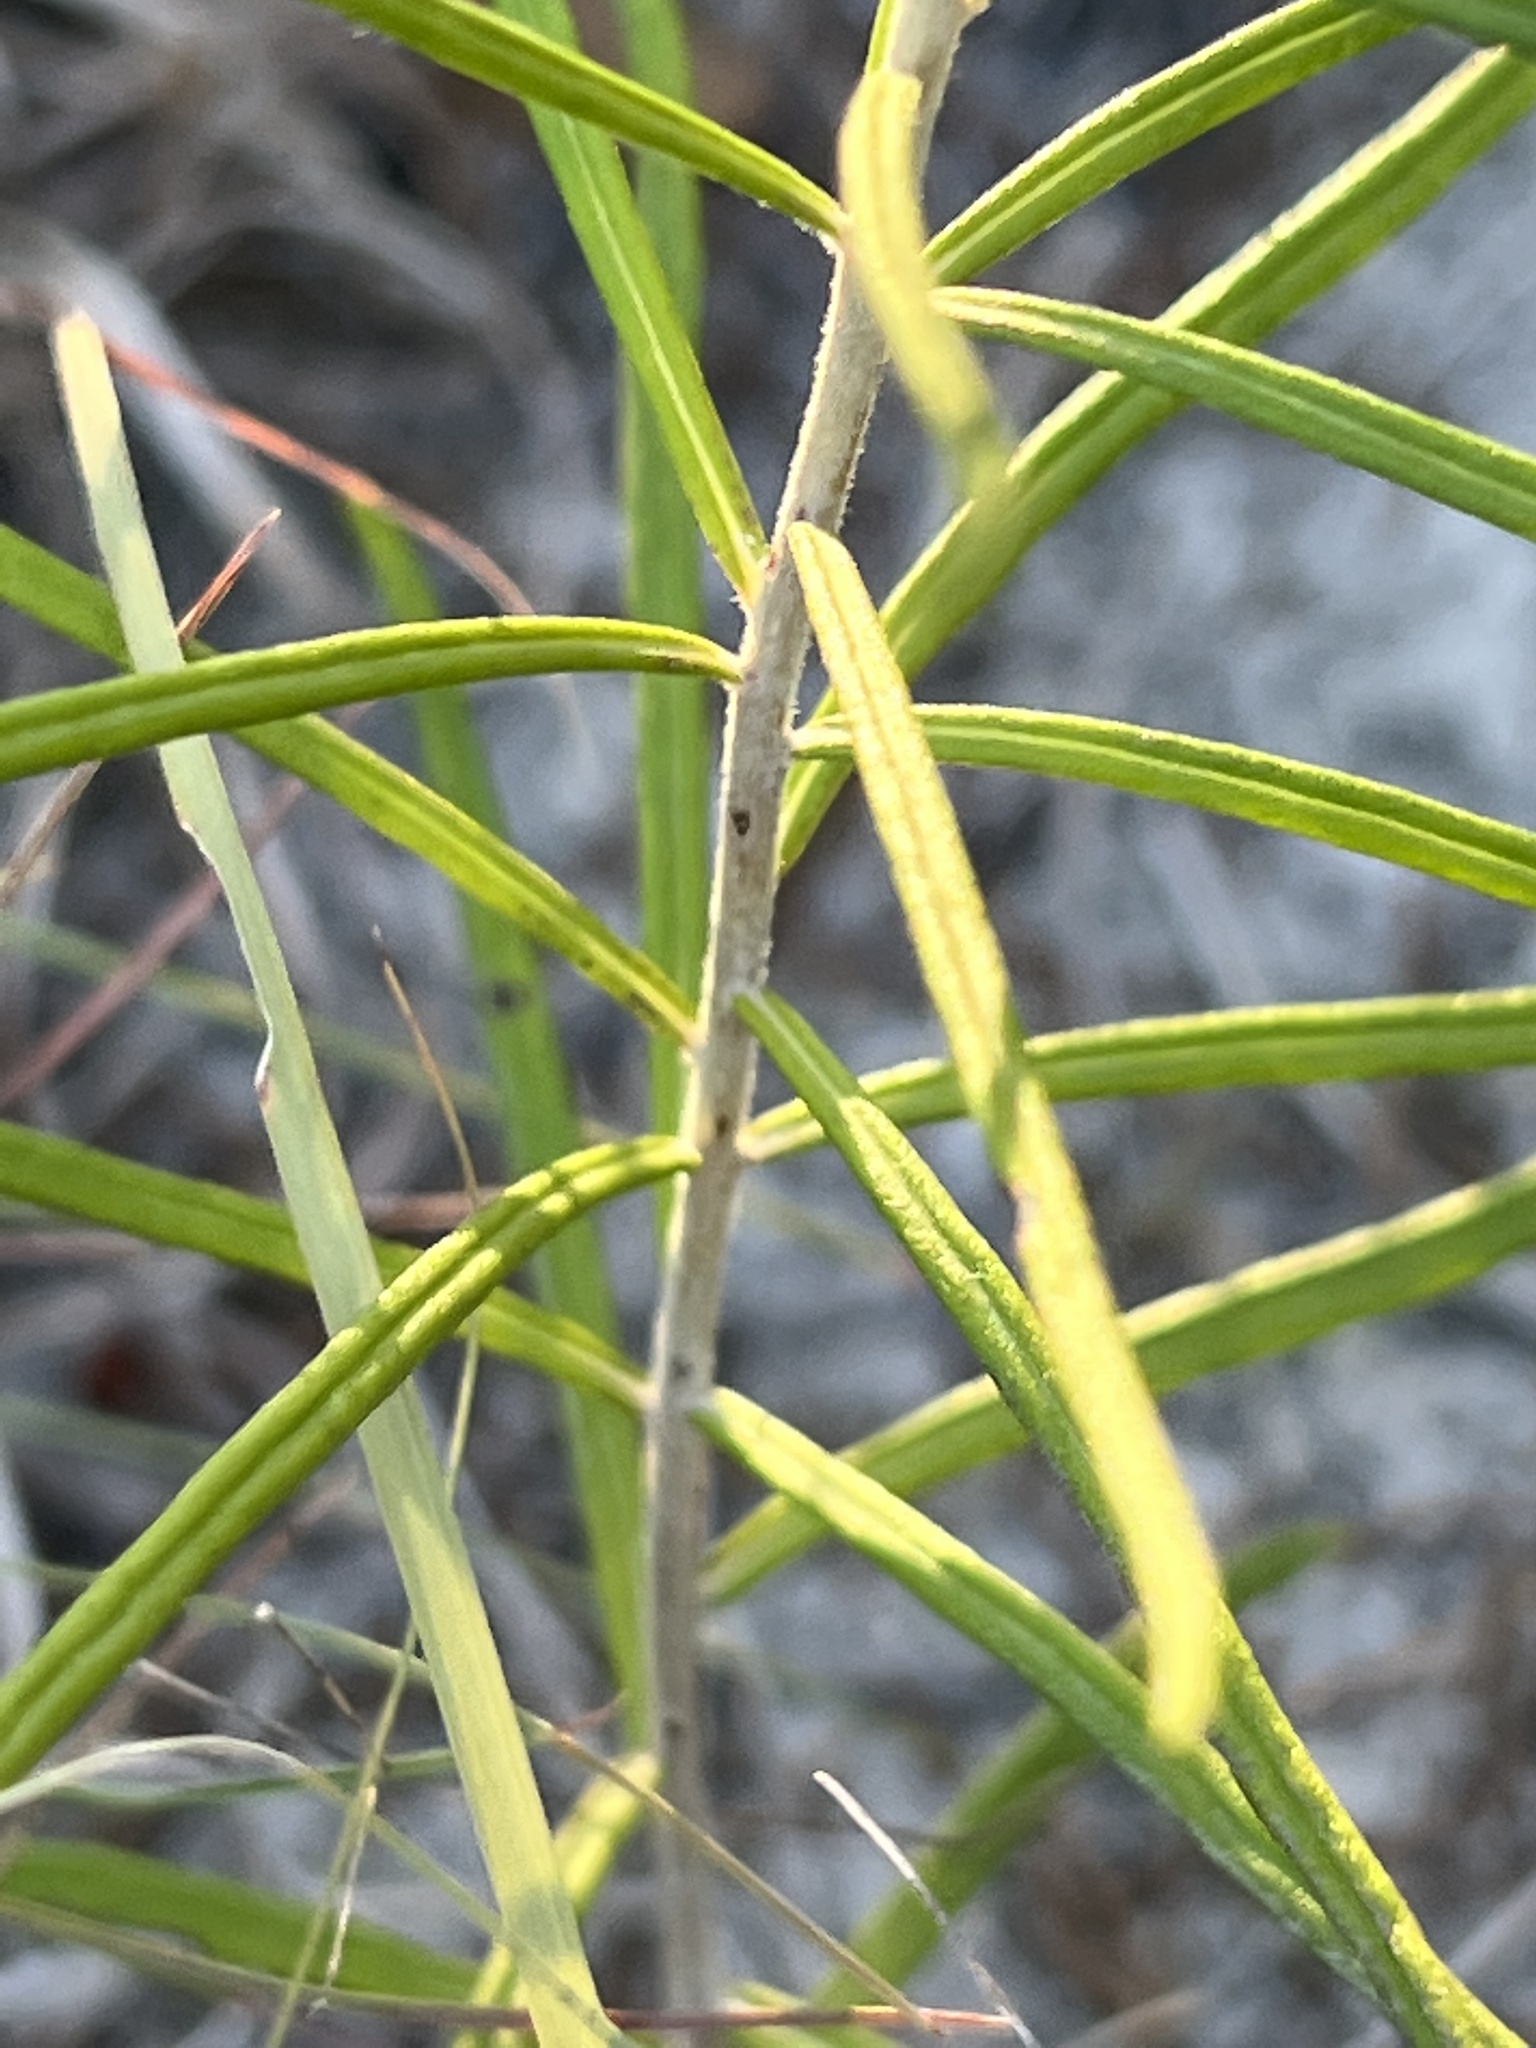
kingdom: Plantae
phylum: Tracheophyta
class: Magnoliopsida
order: Asterales
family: Asteraceae
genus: Vernonia
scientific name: Vernonia lindheimeri
